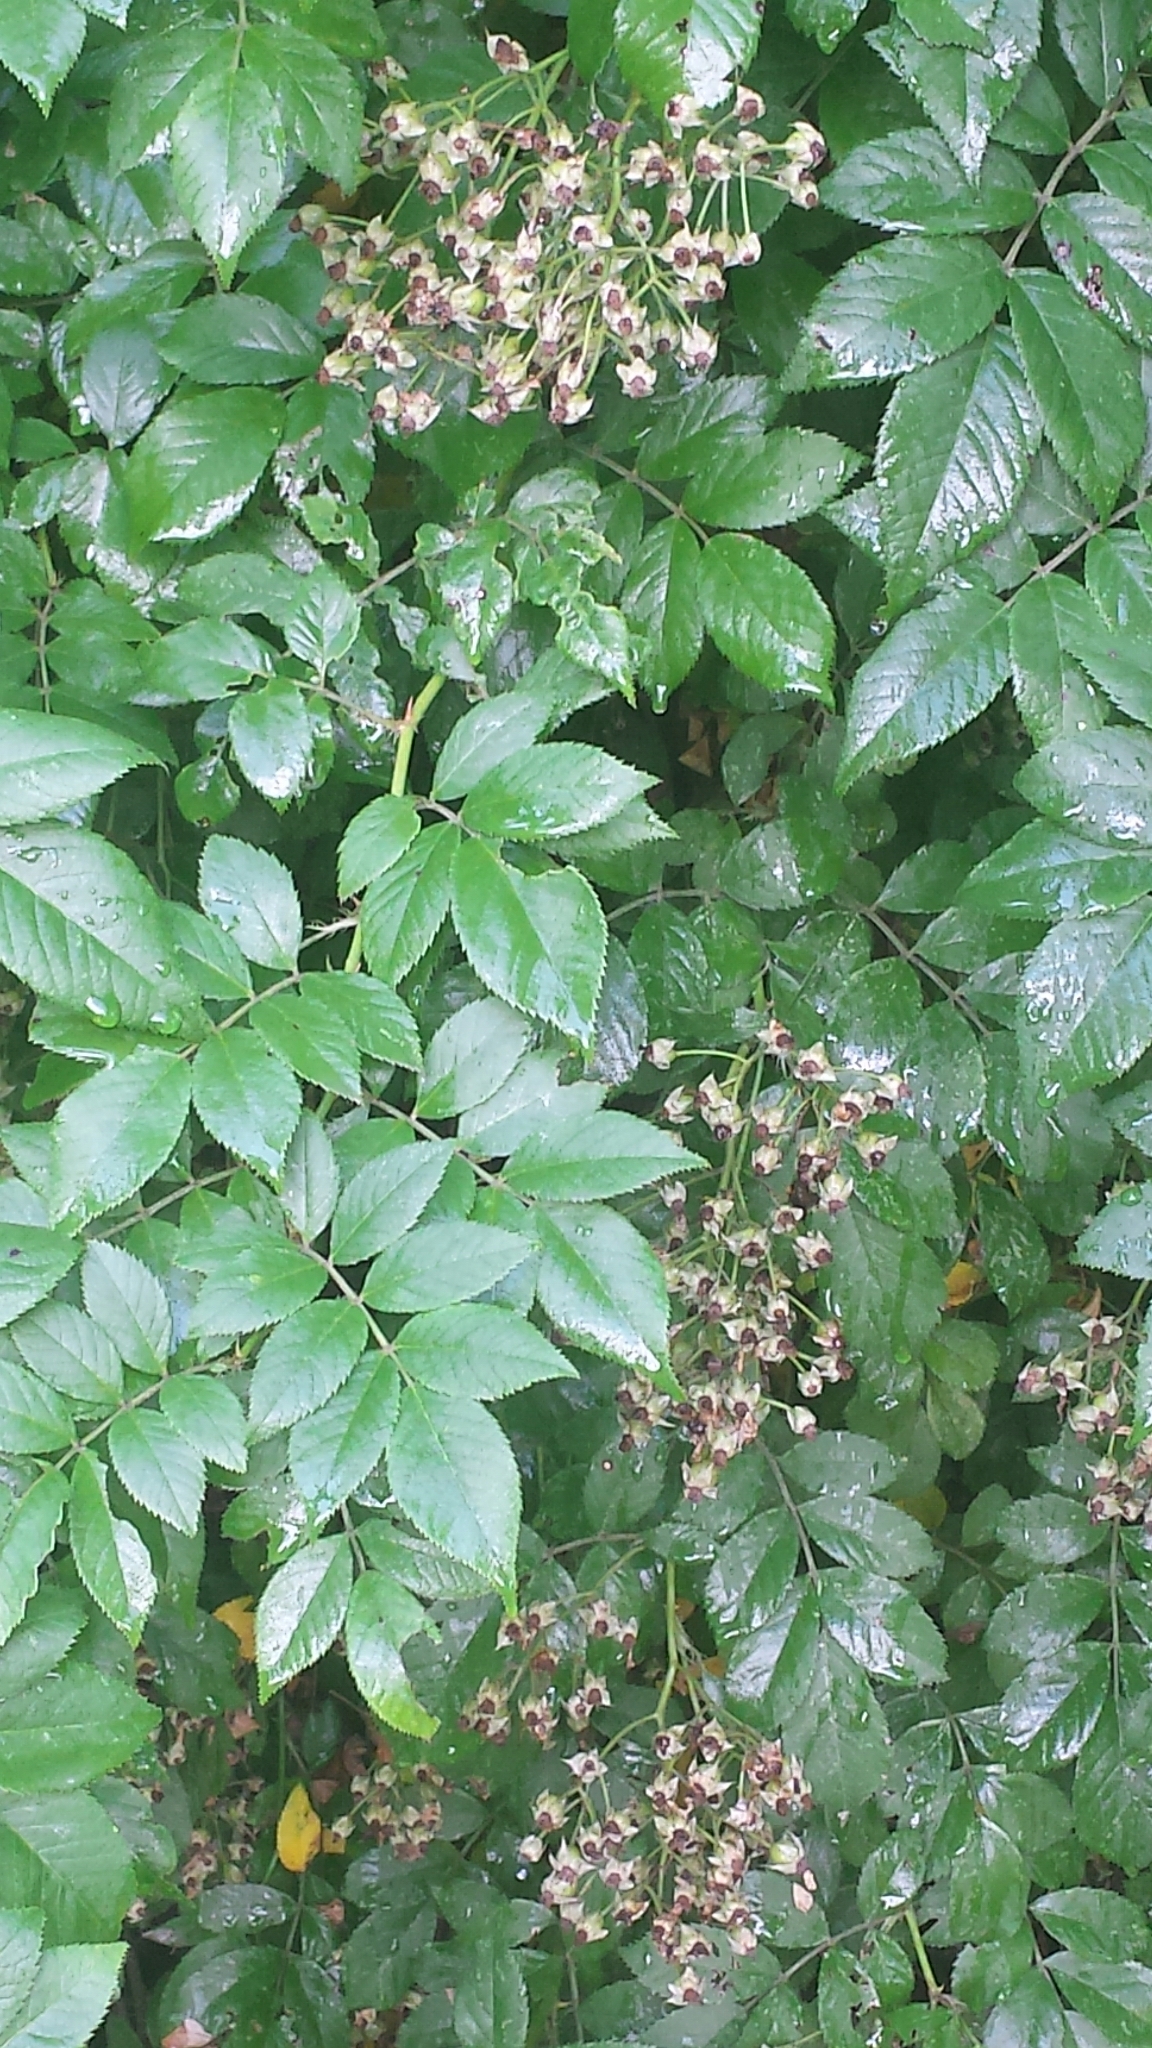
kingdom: Plantae
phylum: Tracheophyta
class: Magnoliopsida
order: Rosales
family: Rosaceae
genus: Rosa
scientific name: Rosa multiflora
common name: Multiflora rose
